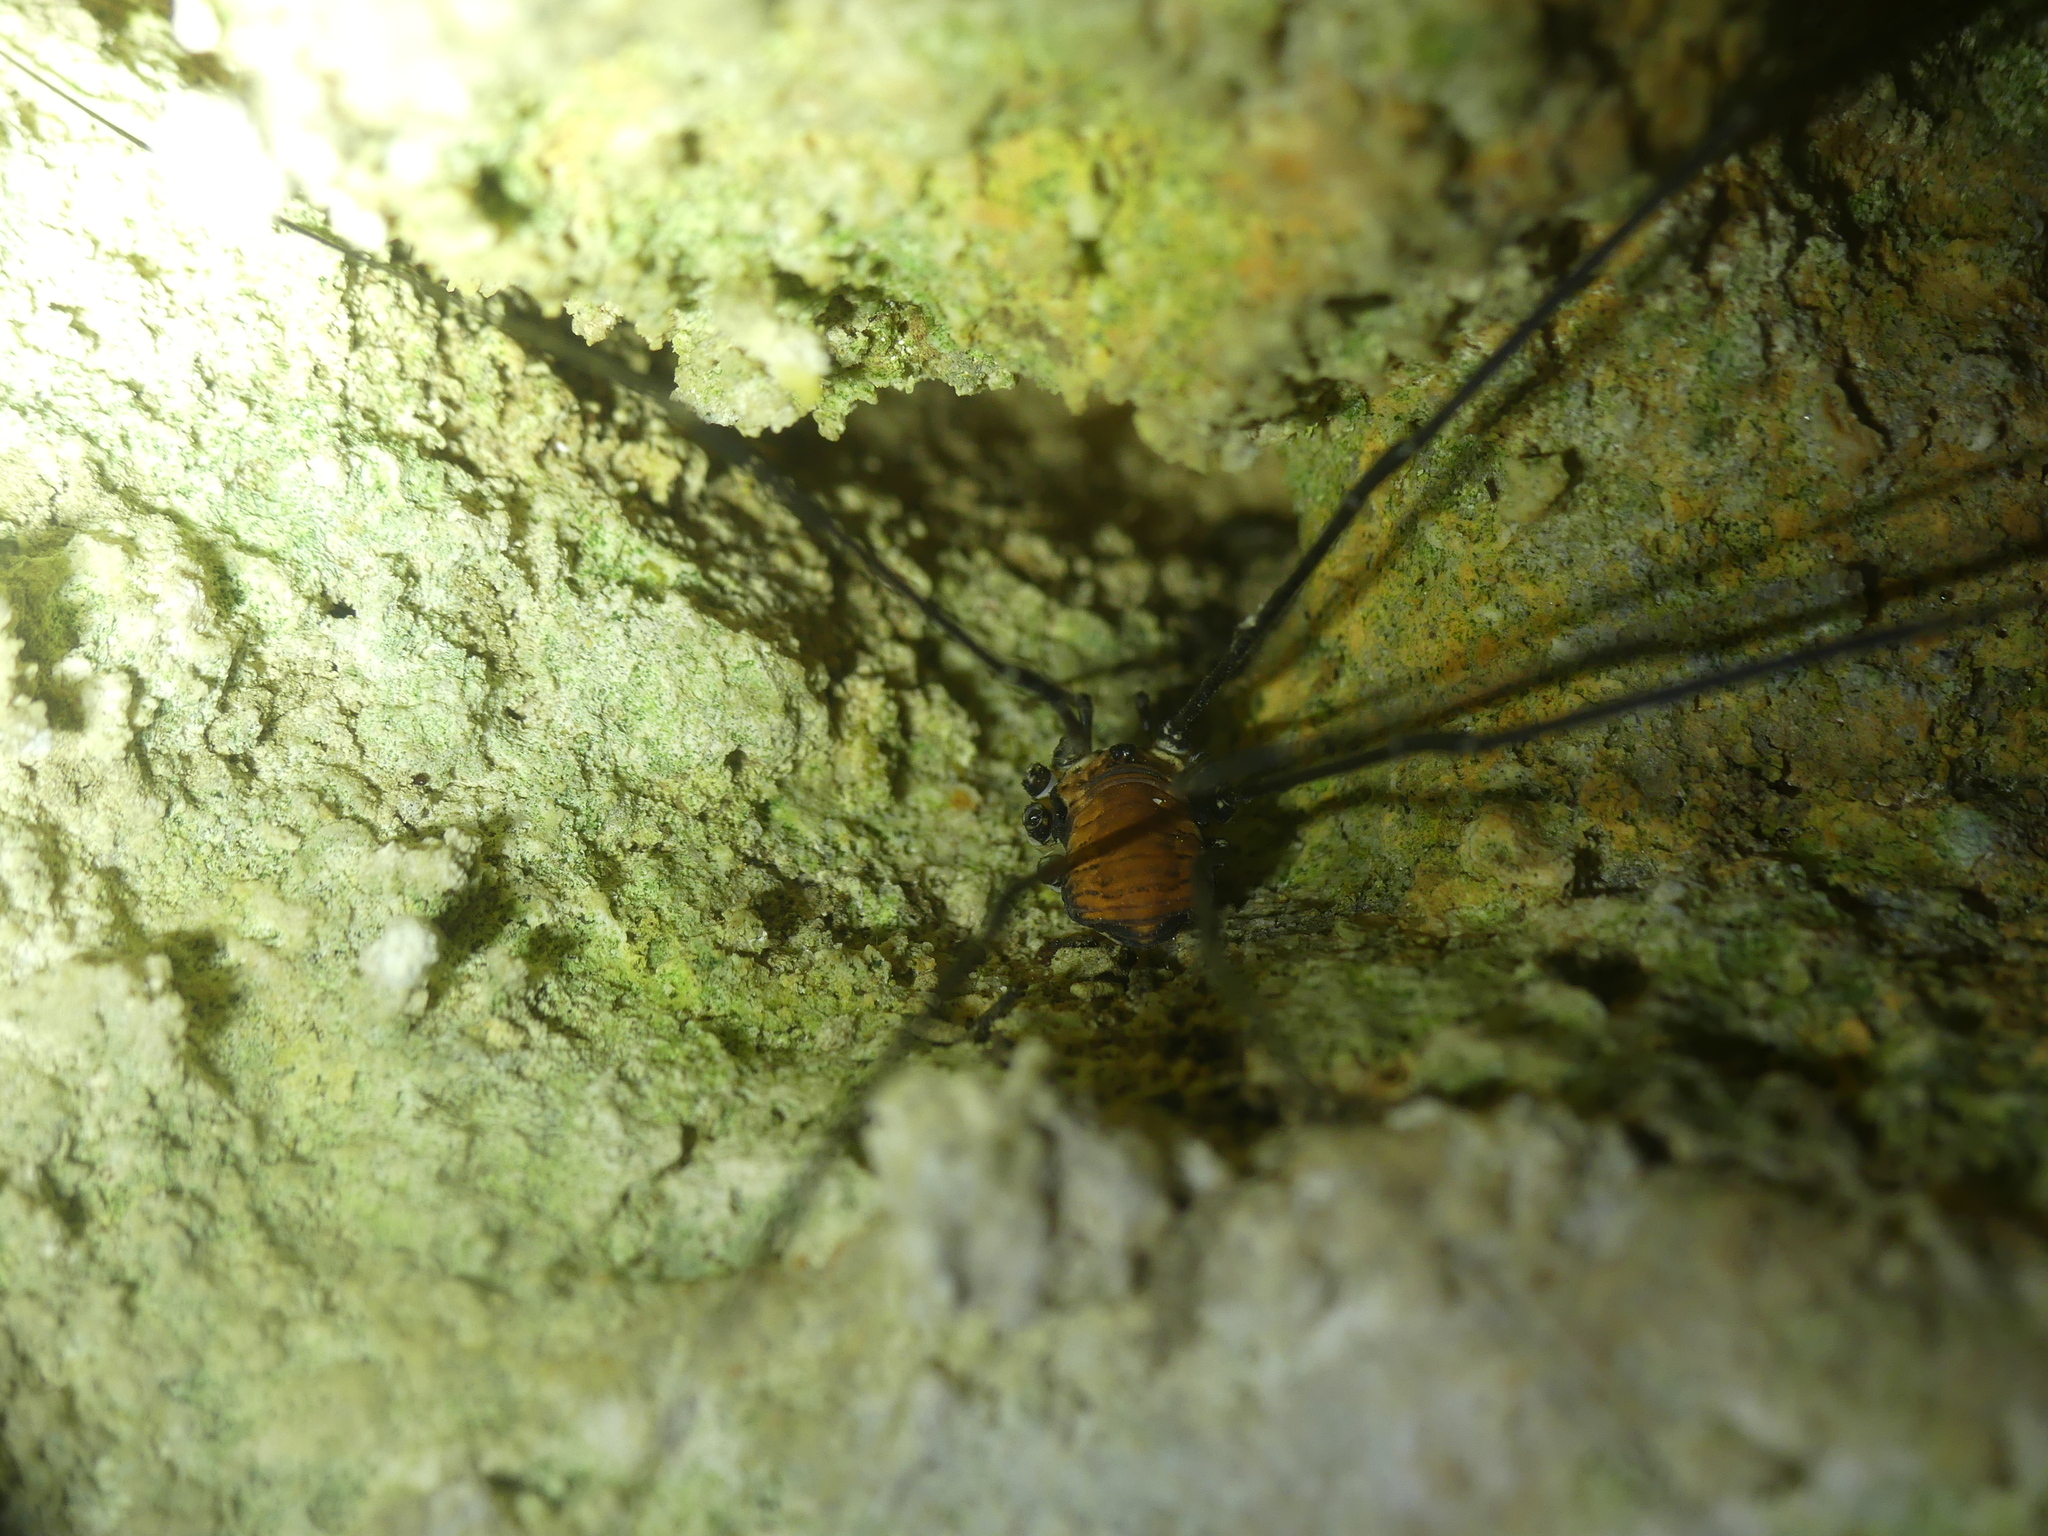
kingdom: Animalia
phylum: Arthropoda
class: Arachnida
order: Opiliones
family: Sclerosomatidae
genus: Leiobunum
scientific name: Leiobunum limbatum
